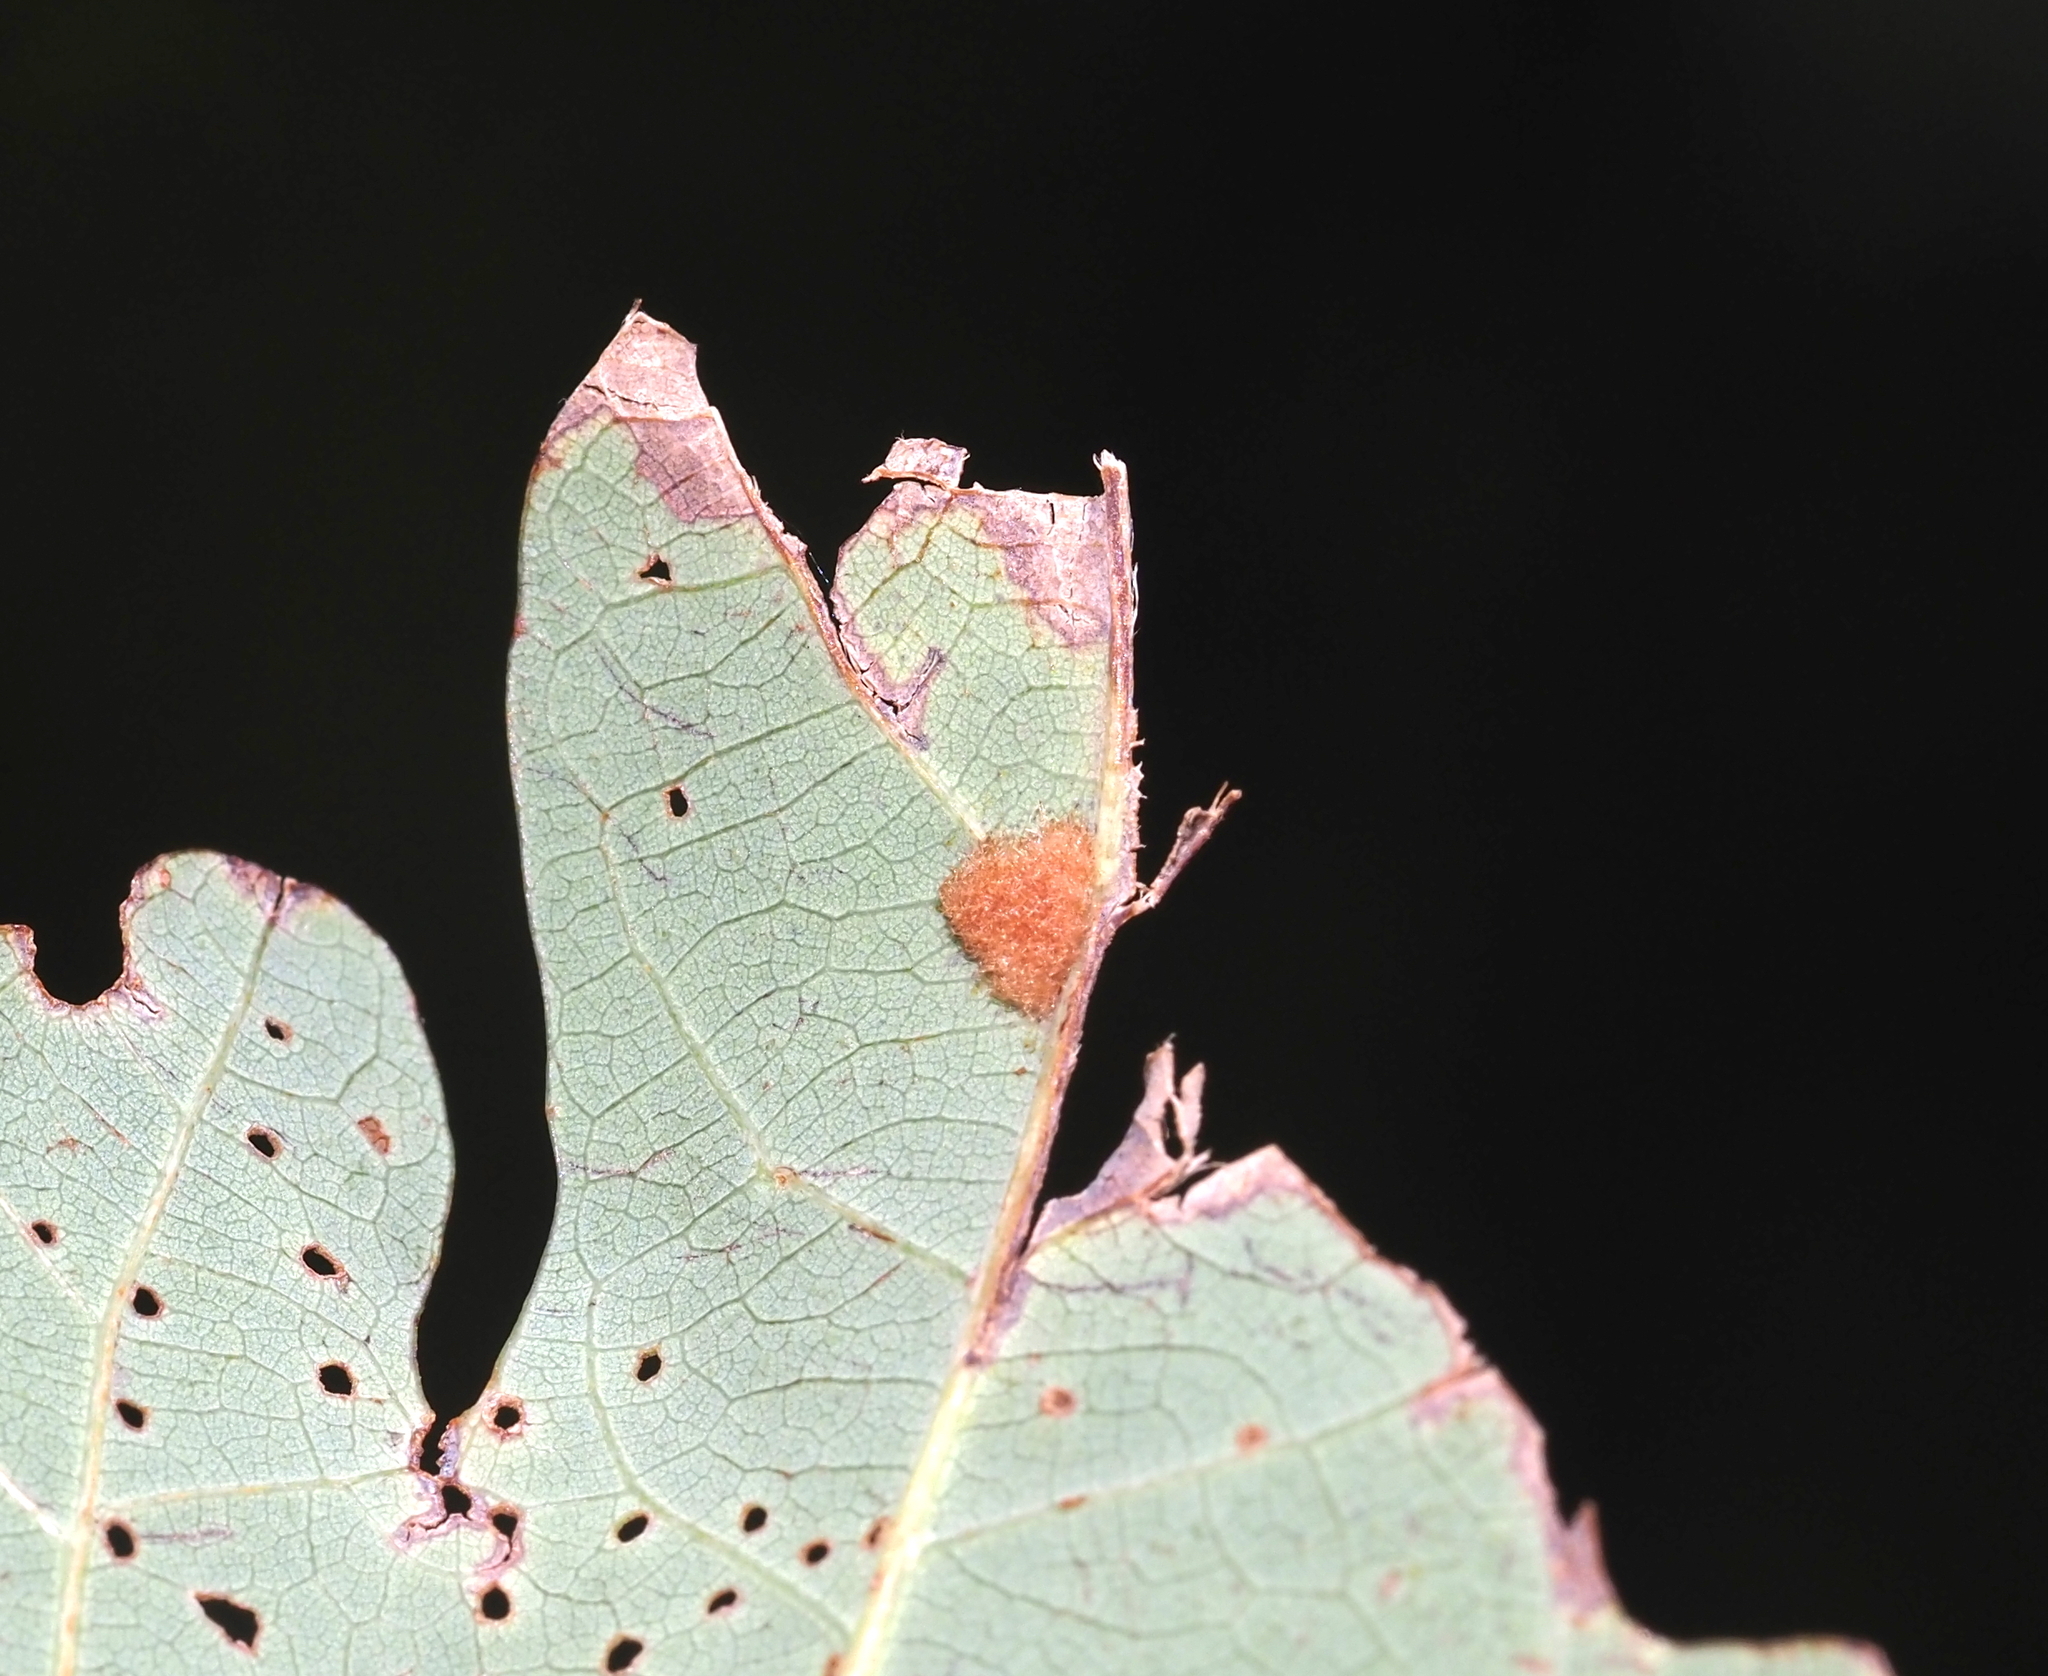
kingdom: Animalia
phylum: Arthropoda
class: Insecta
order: Hymenoptera
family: Cynipidae
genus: Neuroterus
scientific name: Neuroterus quercusverrucarum
